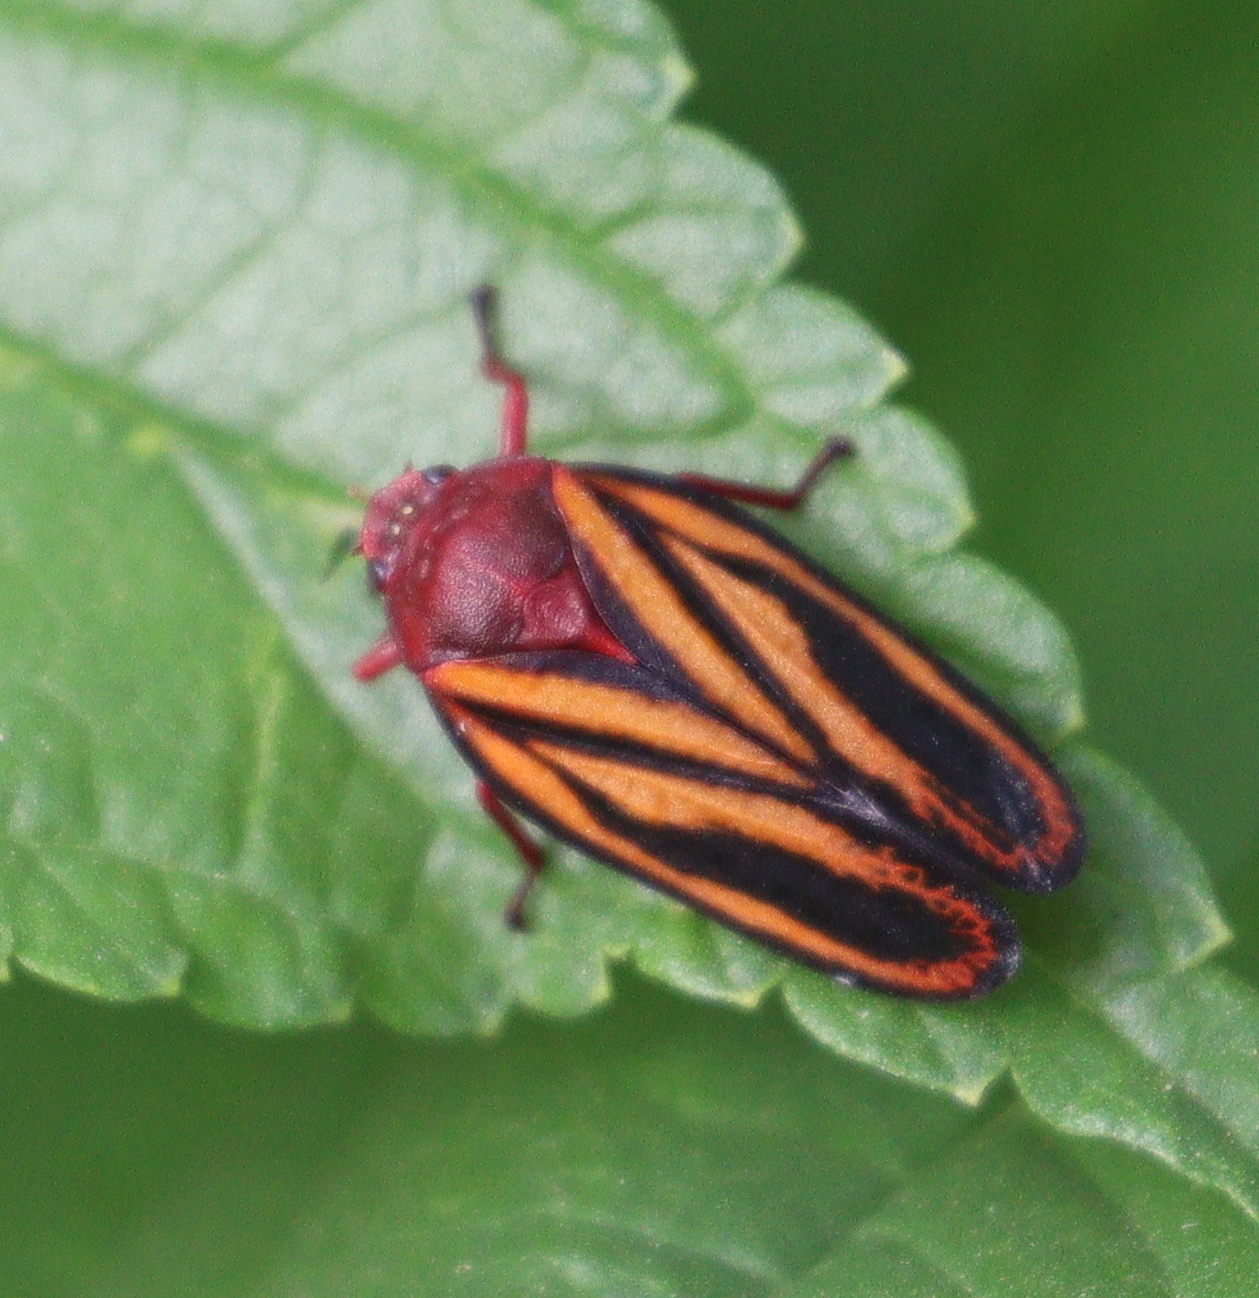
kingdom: Animalia
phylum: Arthropoda
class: Insecta
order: Hemiptera
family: Cercopidae
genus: Mahanarva
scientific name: Mahanarva spectabilis
